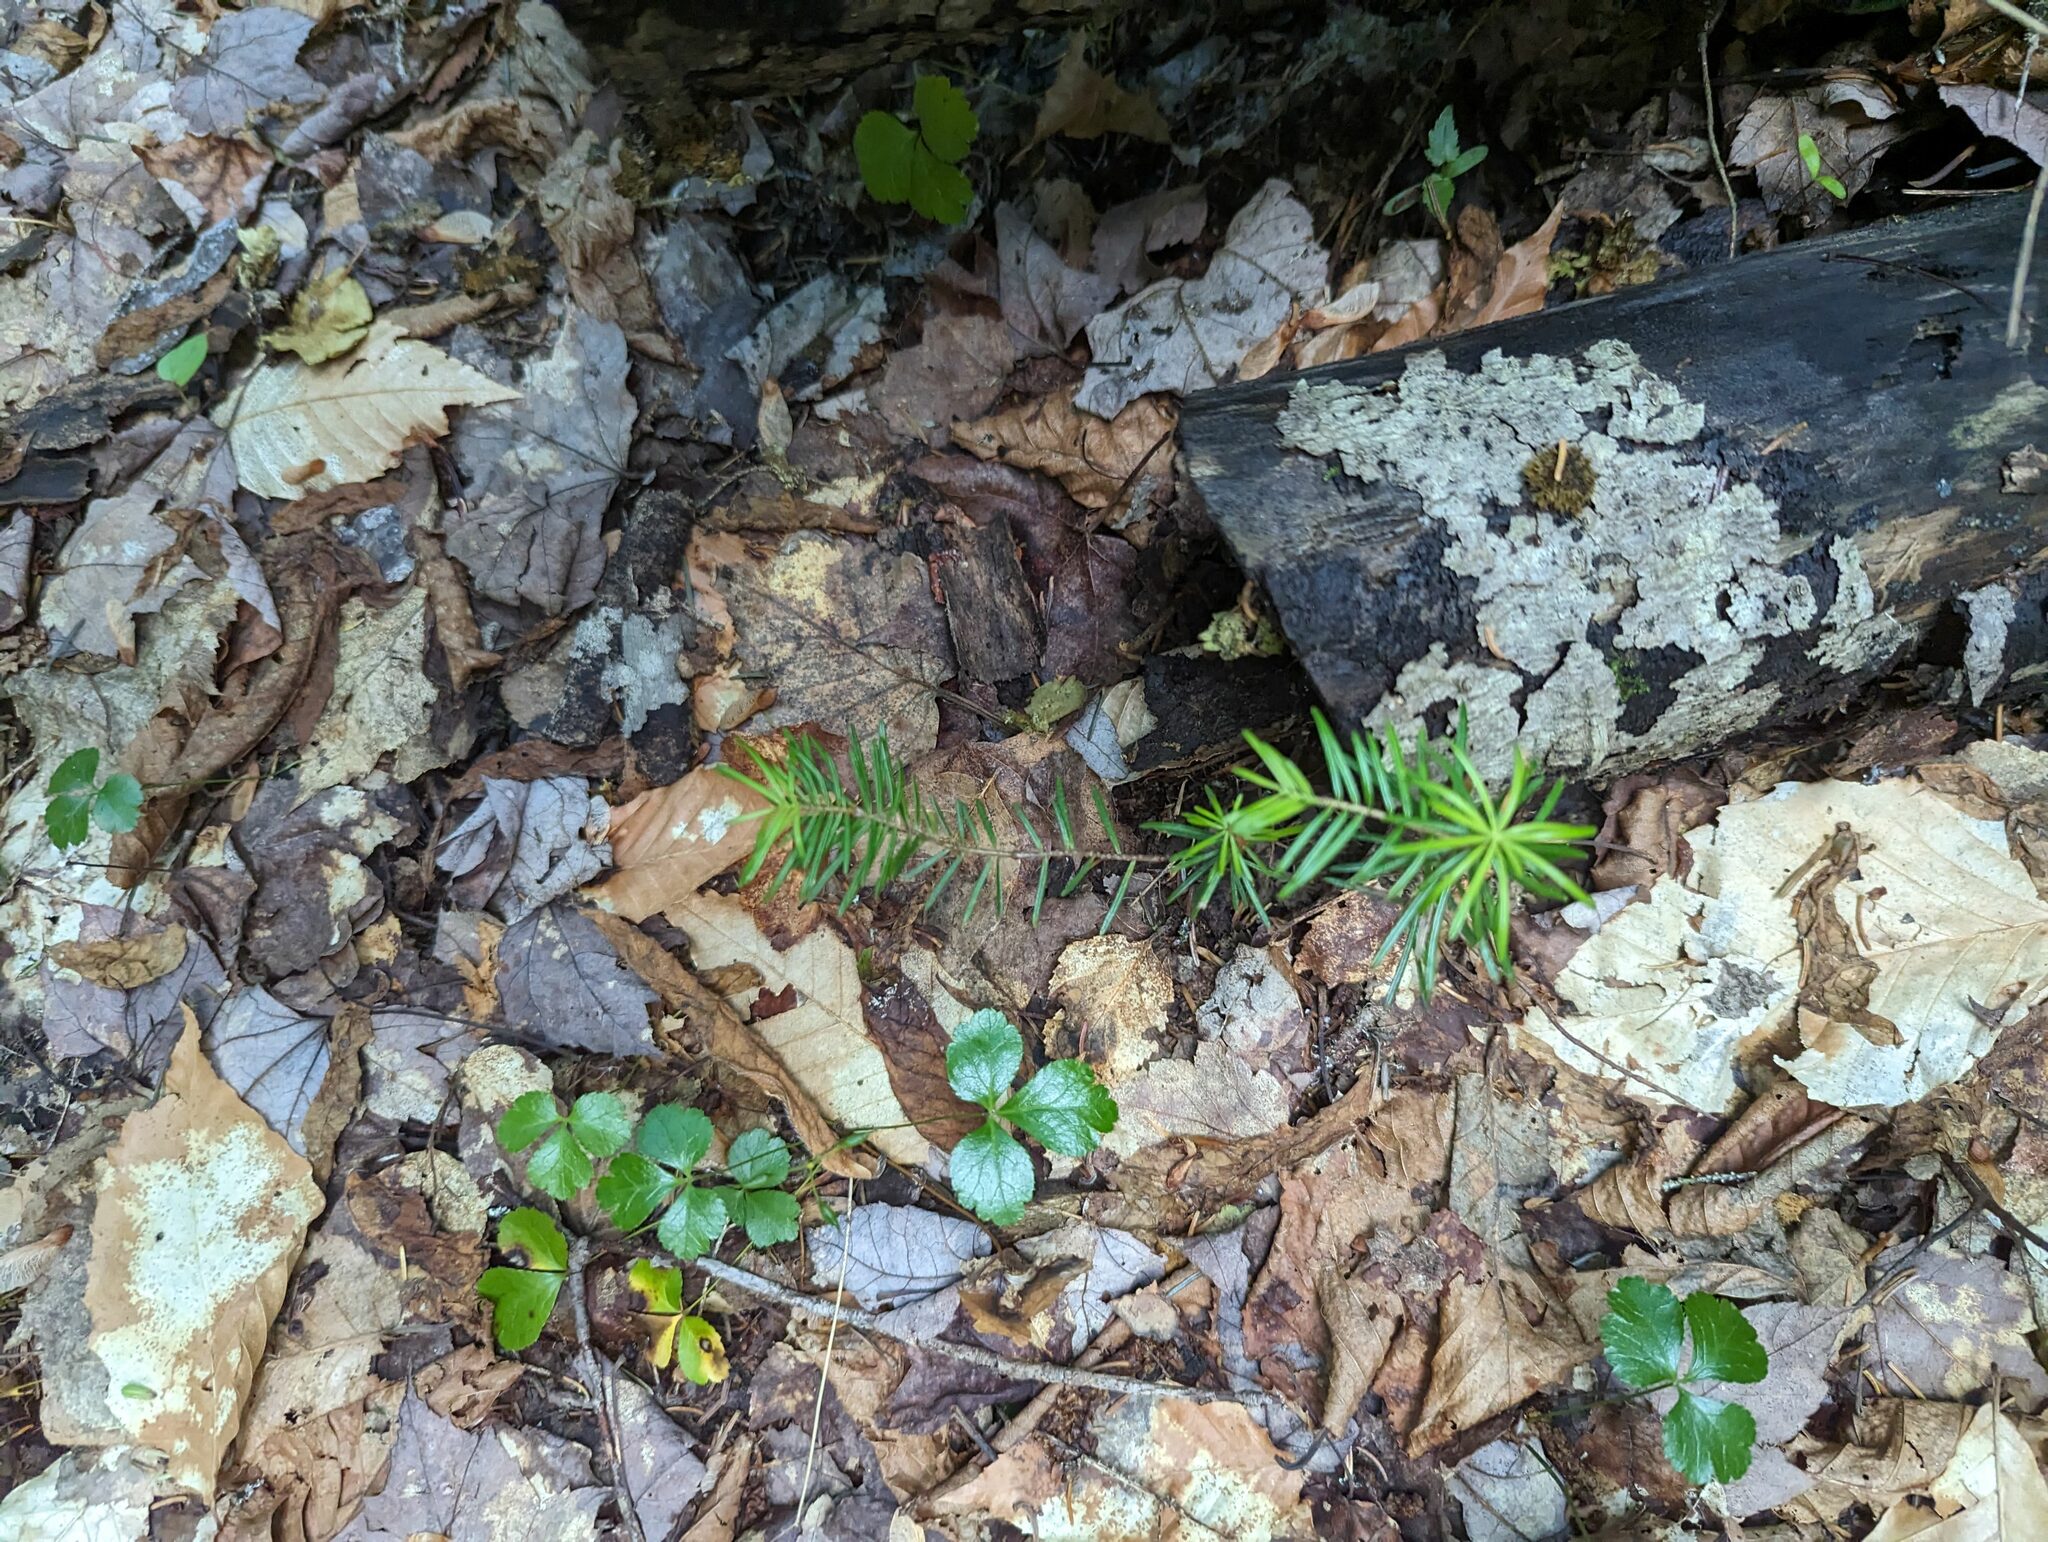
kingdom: Plantae
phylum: Tracheophyta
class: Pinopsida
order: Pinales
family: Pinaceae
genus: Abies
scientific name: Abies balsamea
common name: Balsam fir
